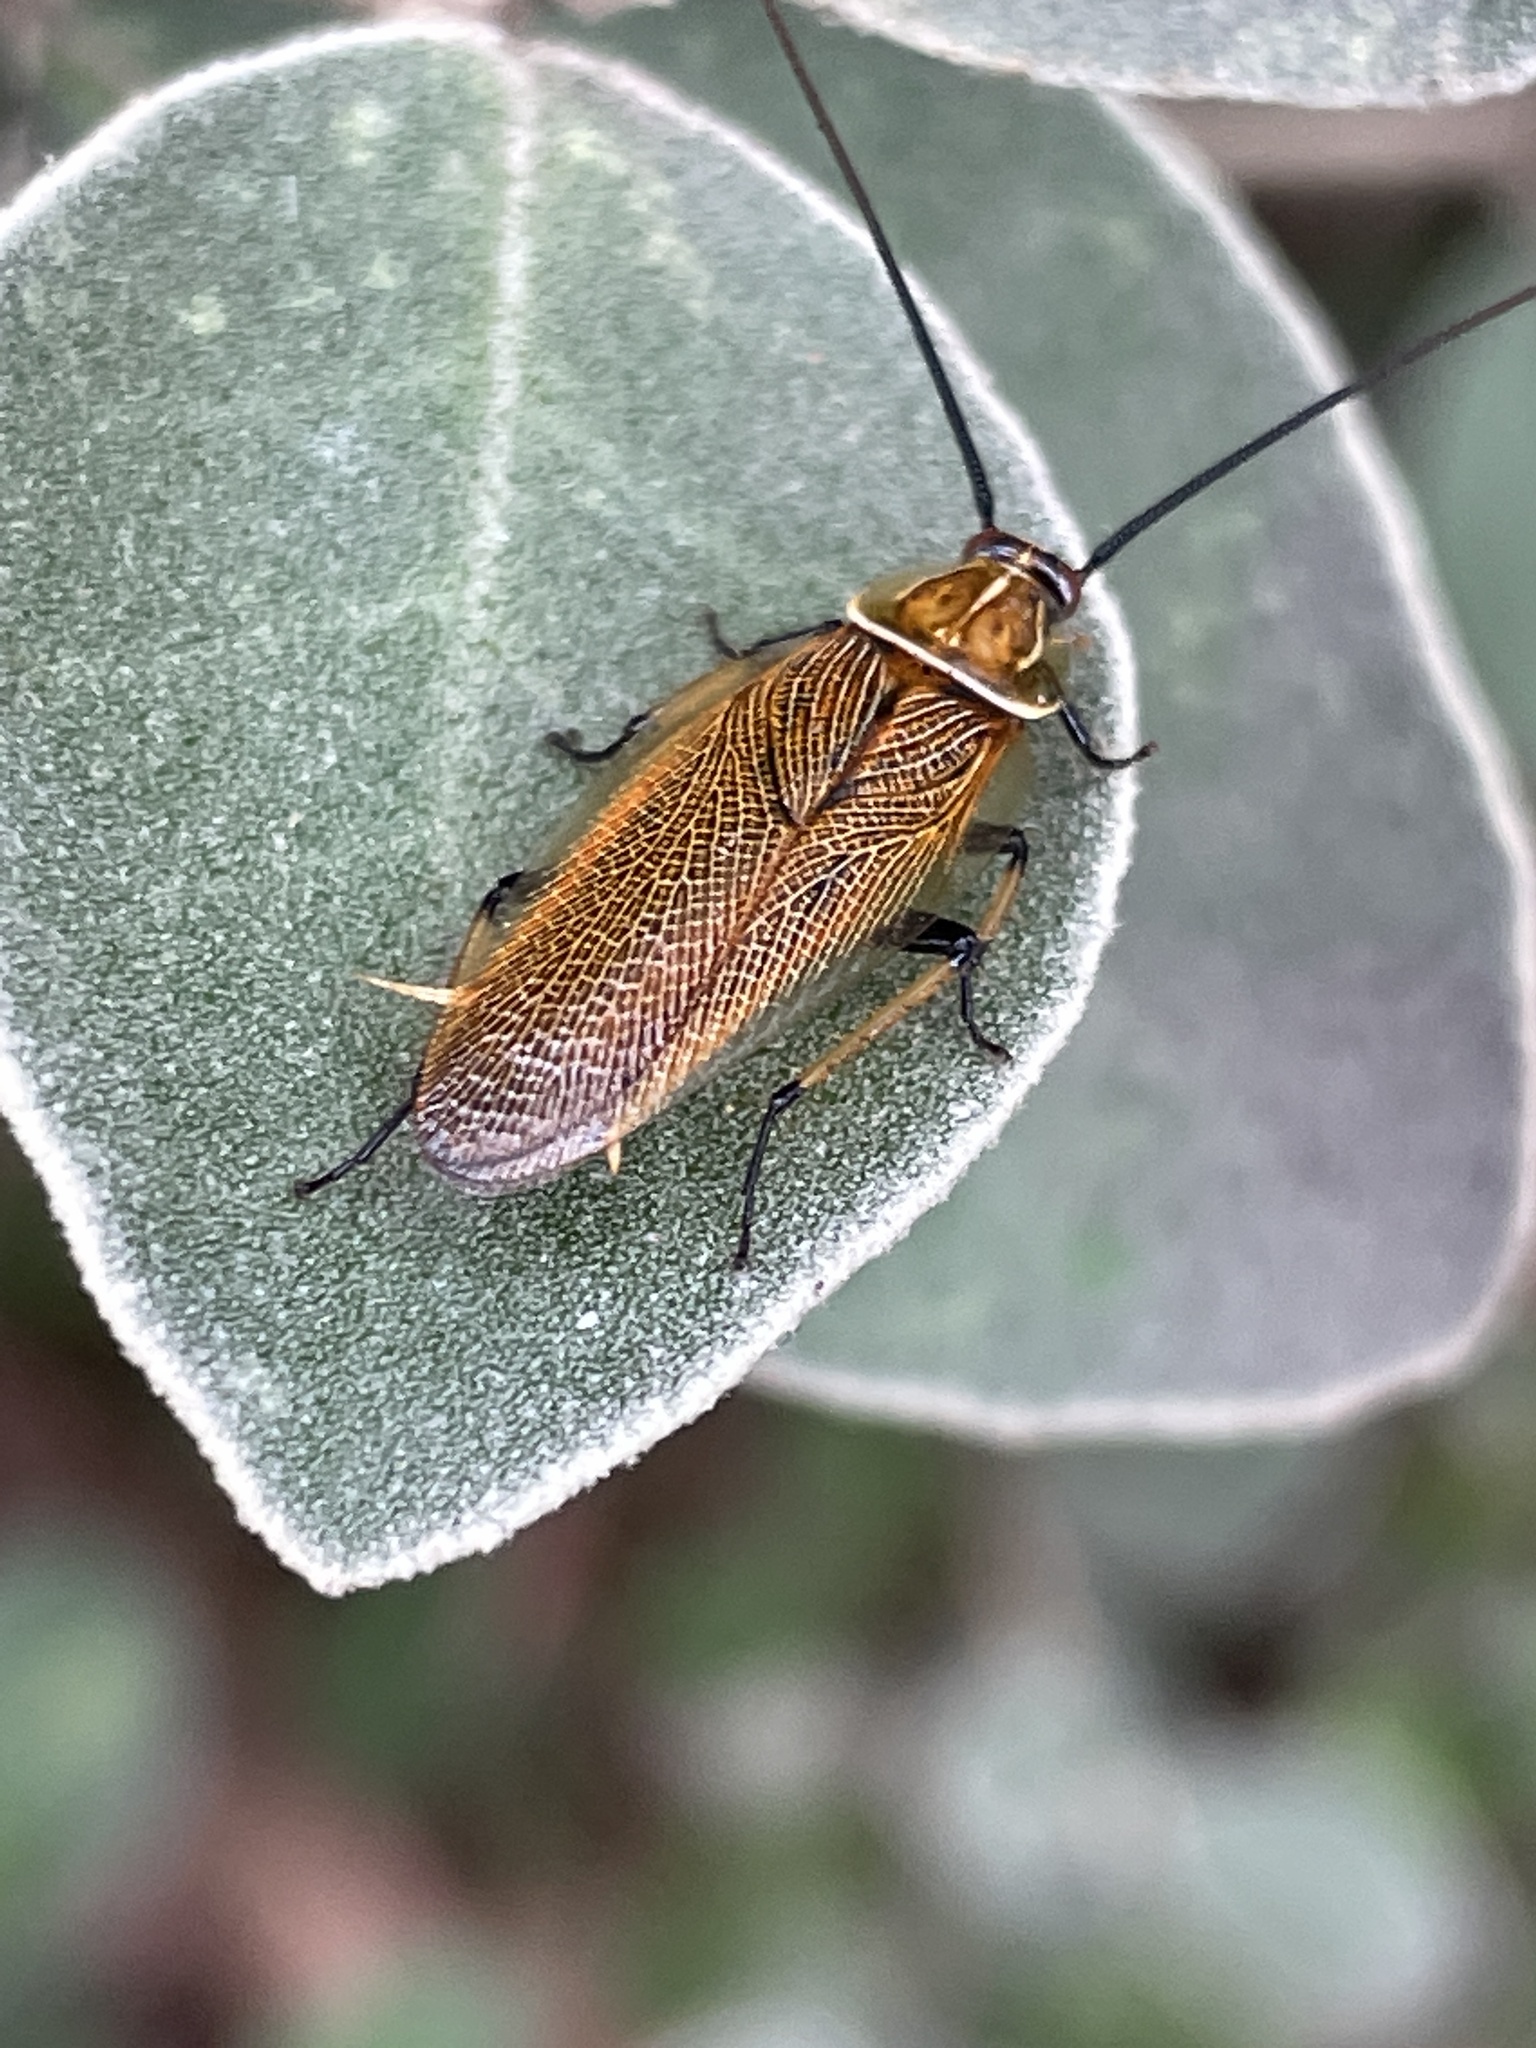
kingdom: Animalia
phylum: Arthropoda
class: Insecta
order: Blattodea
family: Ectobiidae
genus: Ellipsidion
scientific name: Ellipsidion humerale
